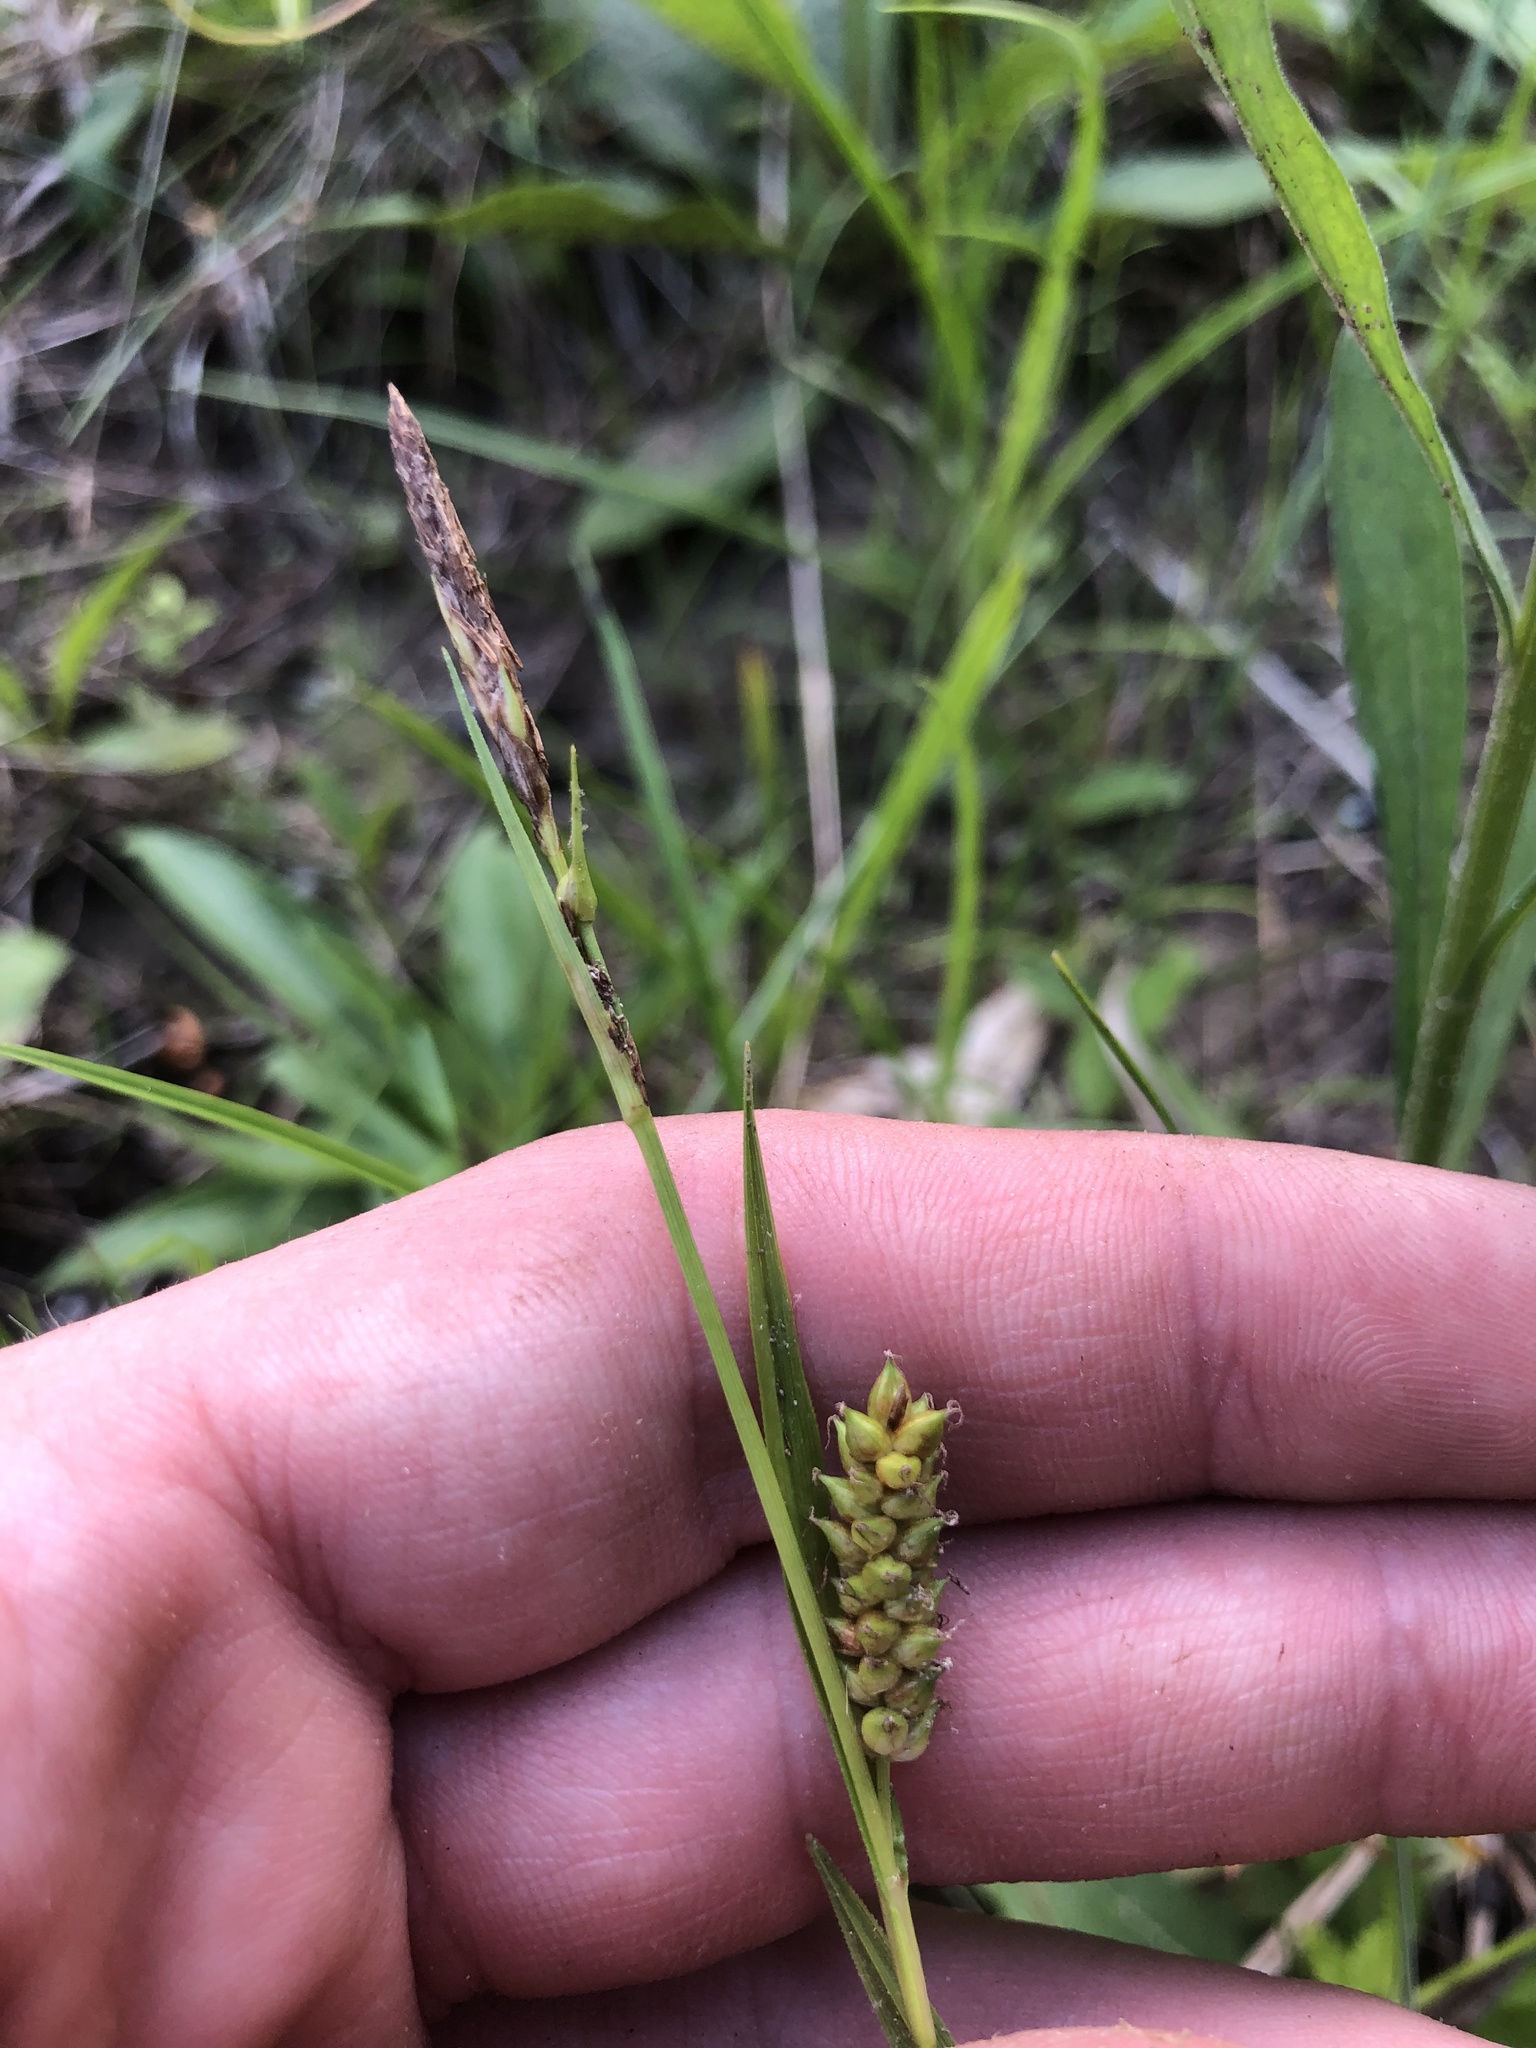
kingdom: Plantae
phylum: Tracheophyta
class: Liliopsida
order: Poales
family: Cyperaceae
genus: Carex
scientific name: Carex microdonta
